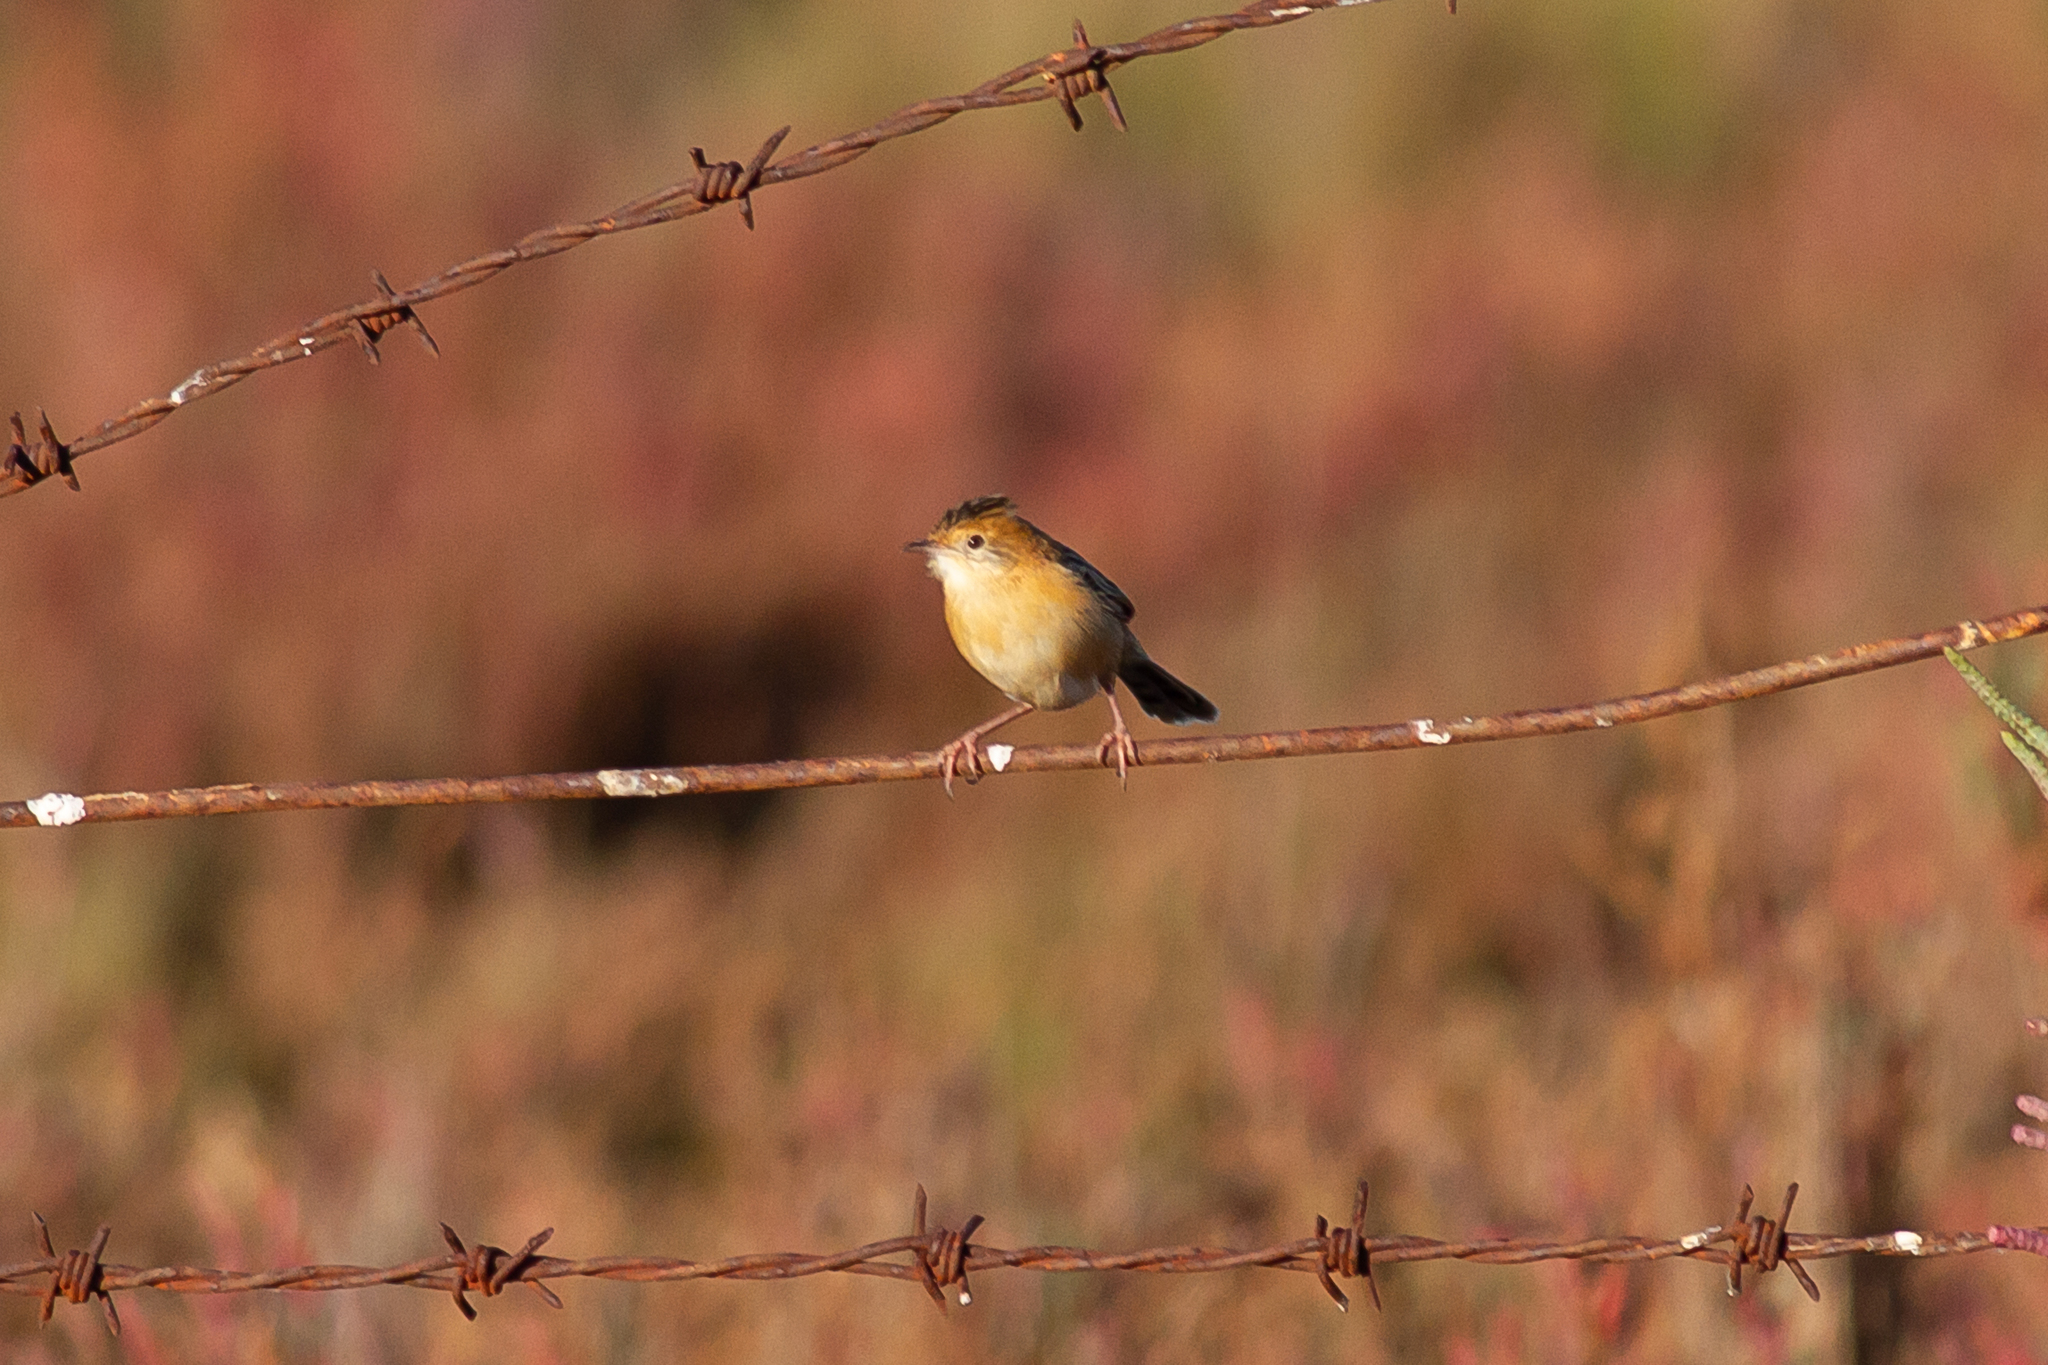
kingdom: Animalia
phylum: Chordata
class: Aves
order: Passeriformes
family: Cisticolidae
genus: Cisticola
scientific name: Cisticola exilis
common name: Golden-headed cisticola
